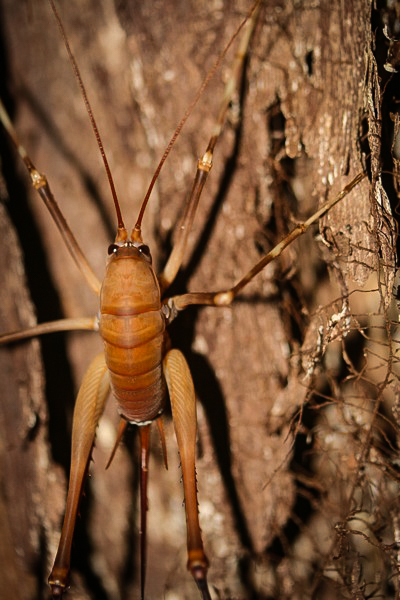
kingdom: Animalia
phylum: Arthropoda
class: Insecta
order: Orthoptera
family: Rhaphidophoridae
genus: Pachyrhamma
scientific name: Pachyrhamma longipes
